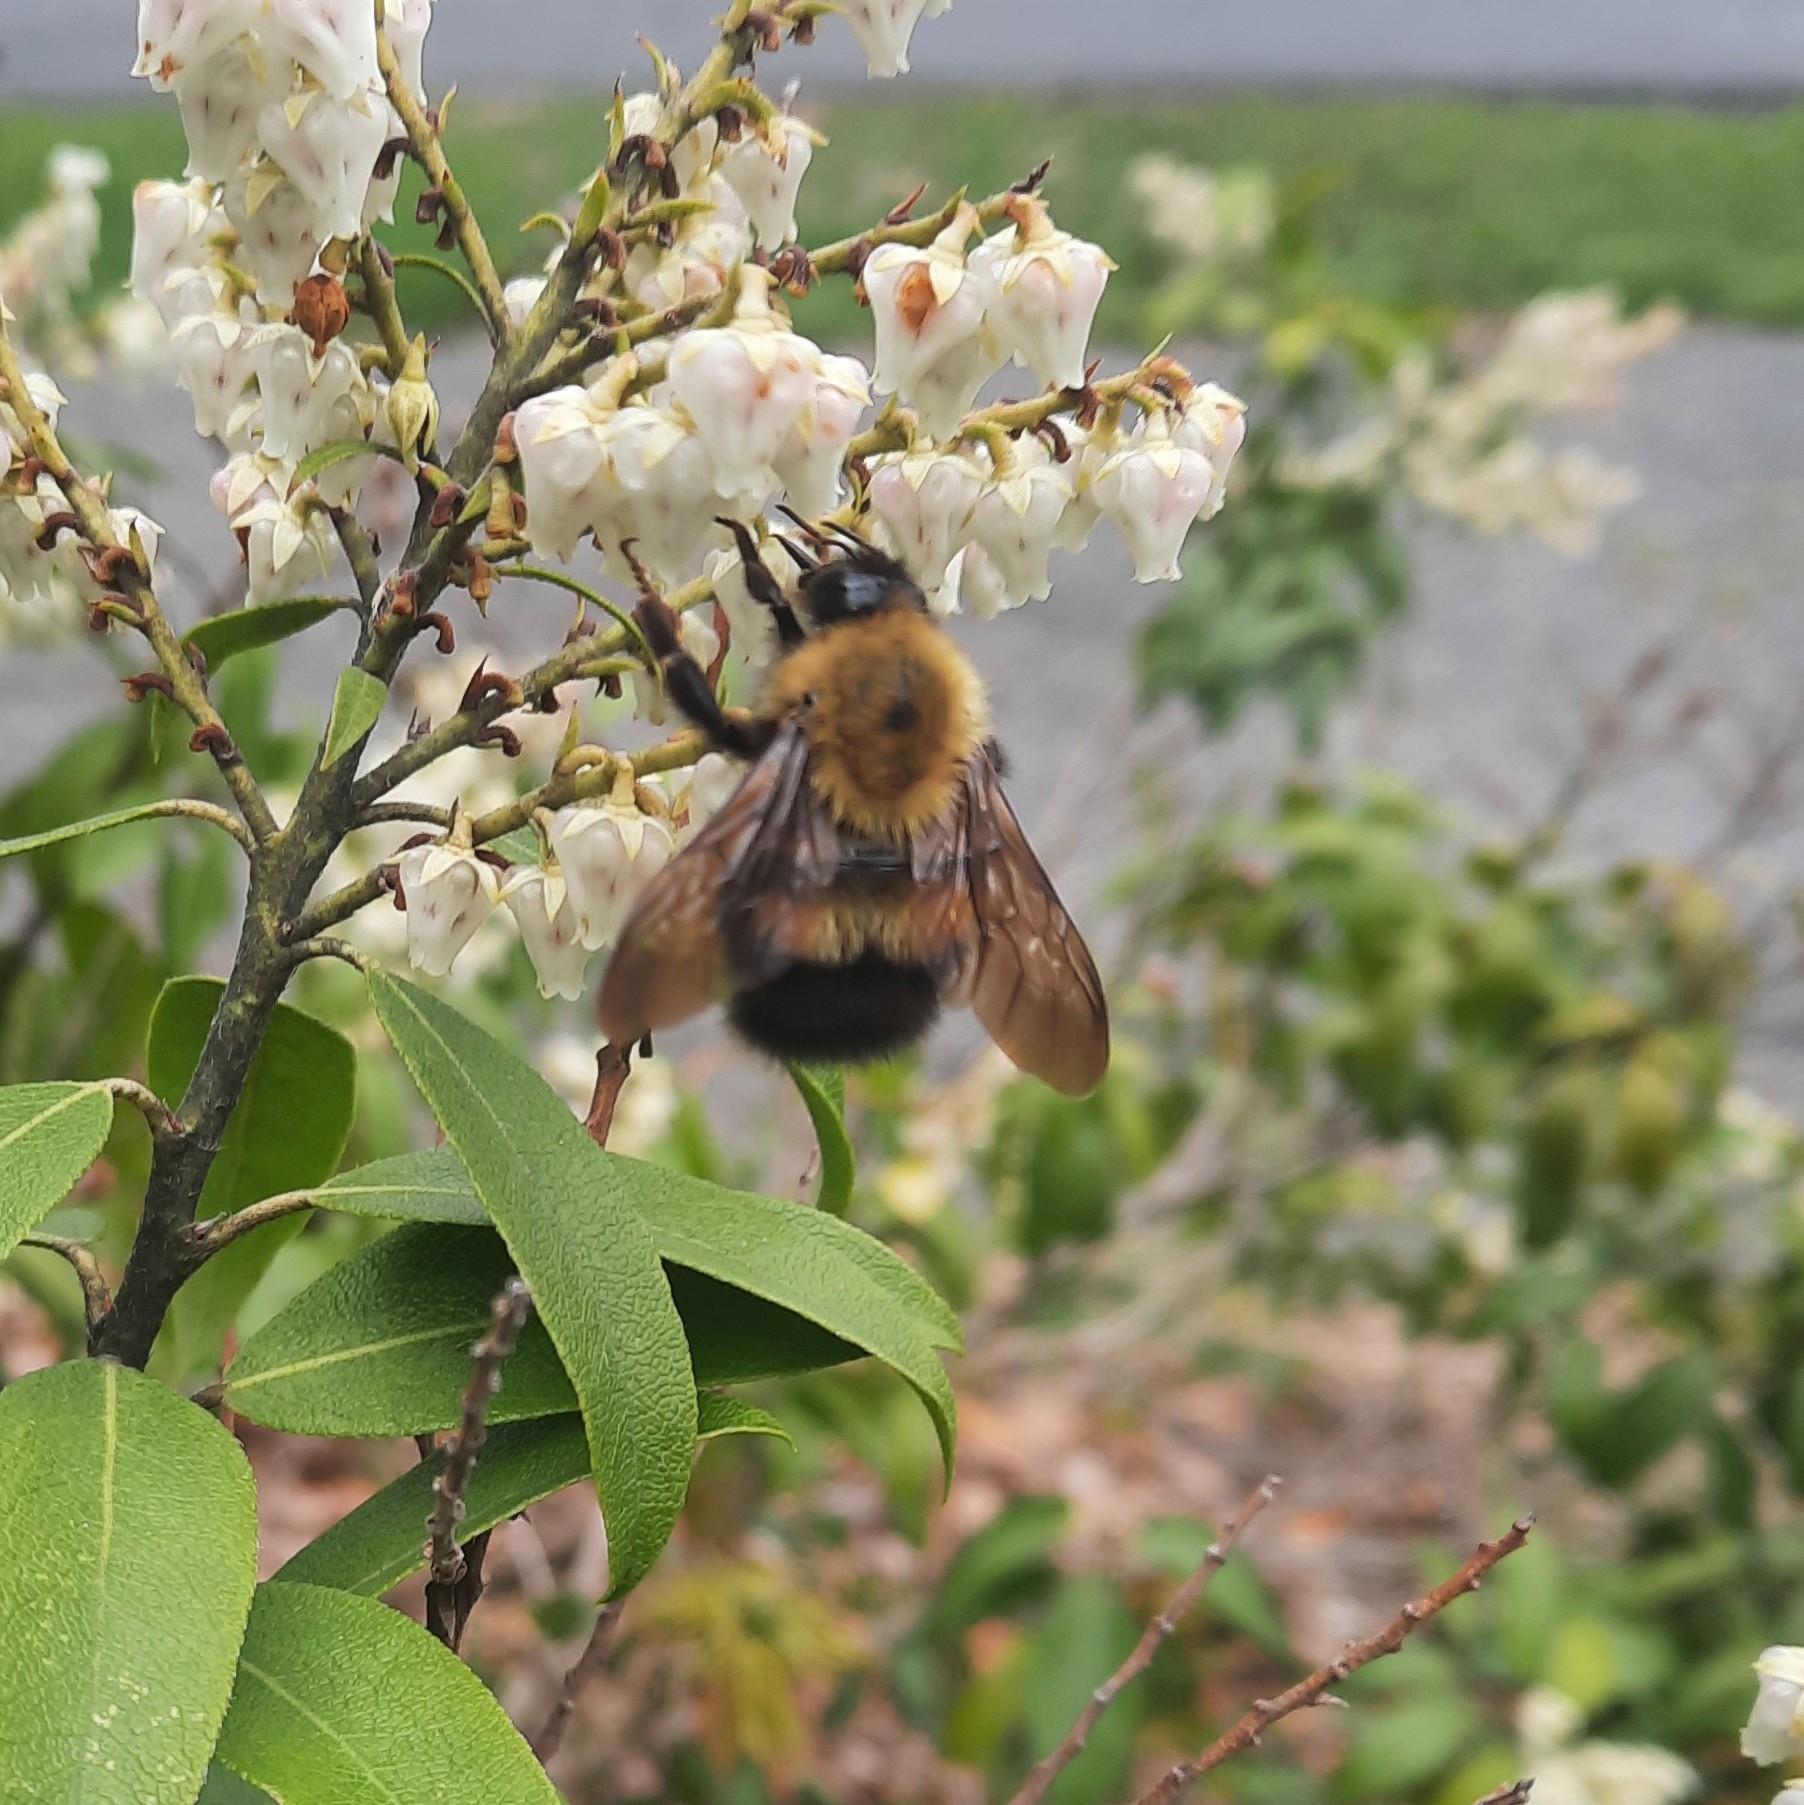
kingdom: Animalia
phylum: Arthropoda
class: Insecta
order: Hymenoptera
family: Apidae
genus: Bombus
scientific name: Bombus perplexus
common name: Confusing bumble bee
